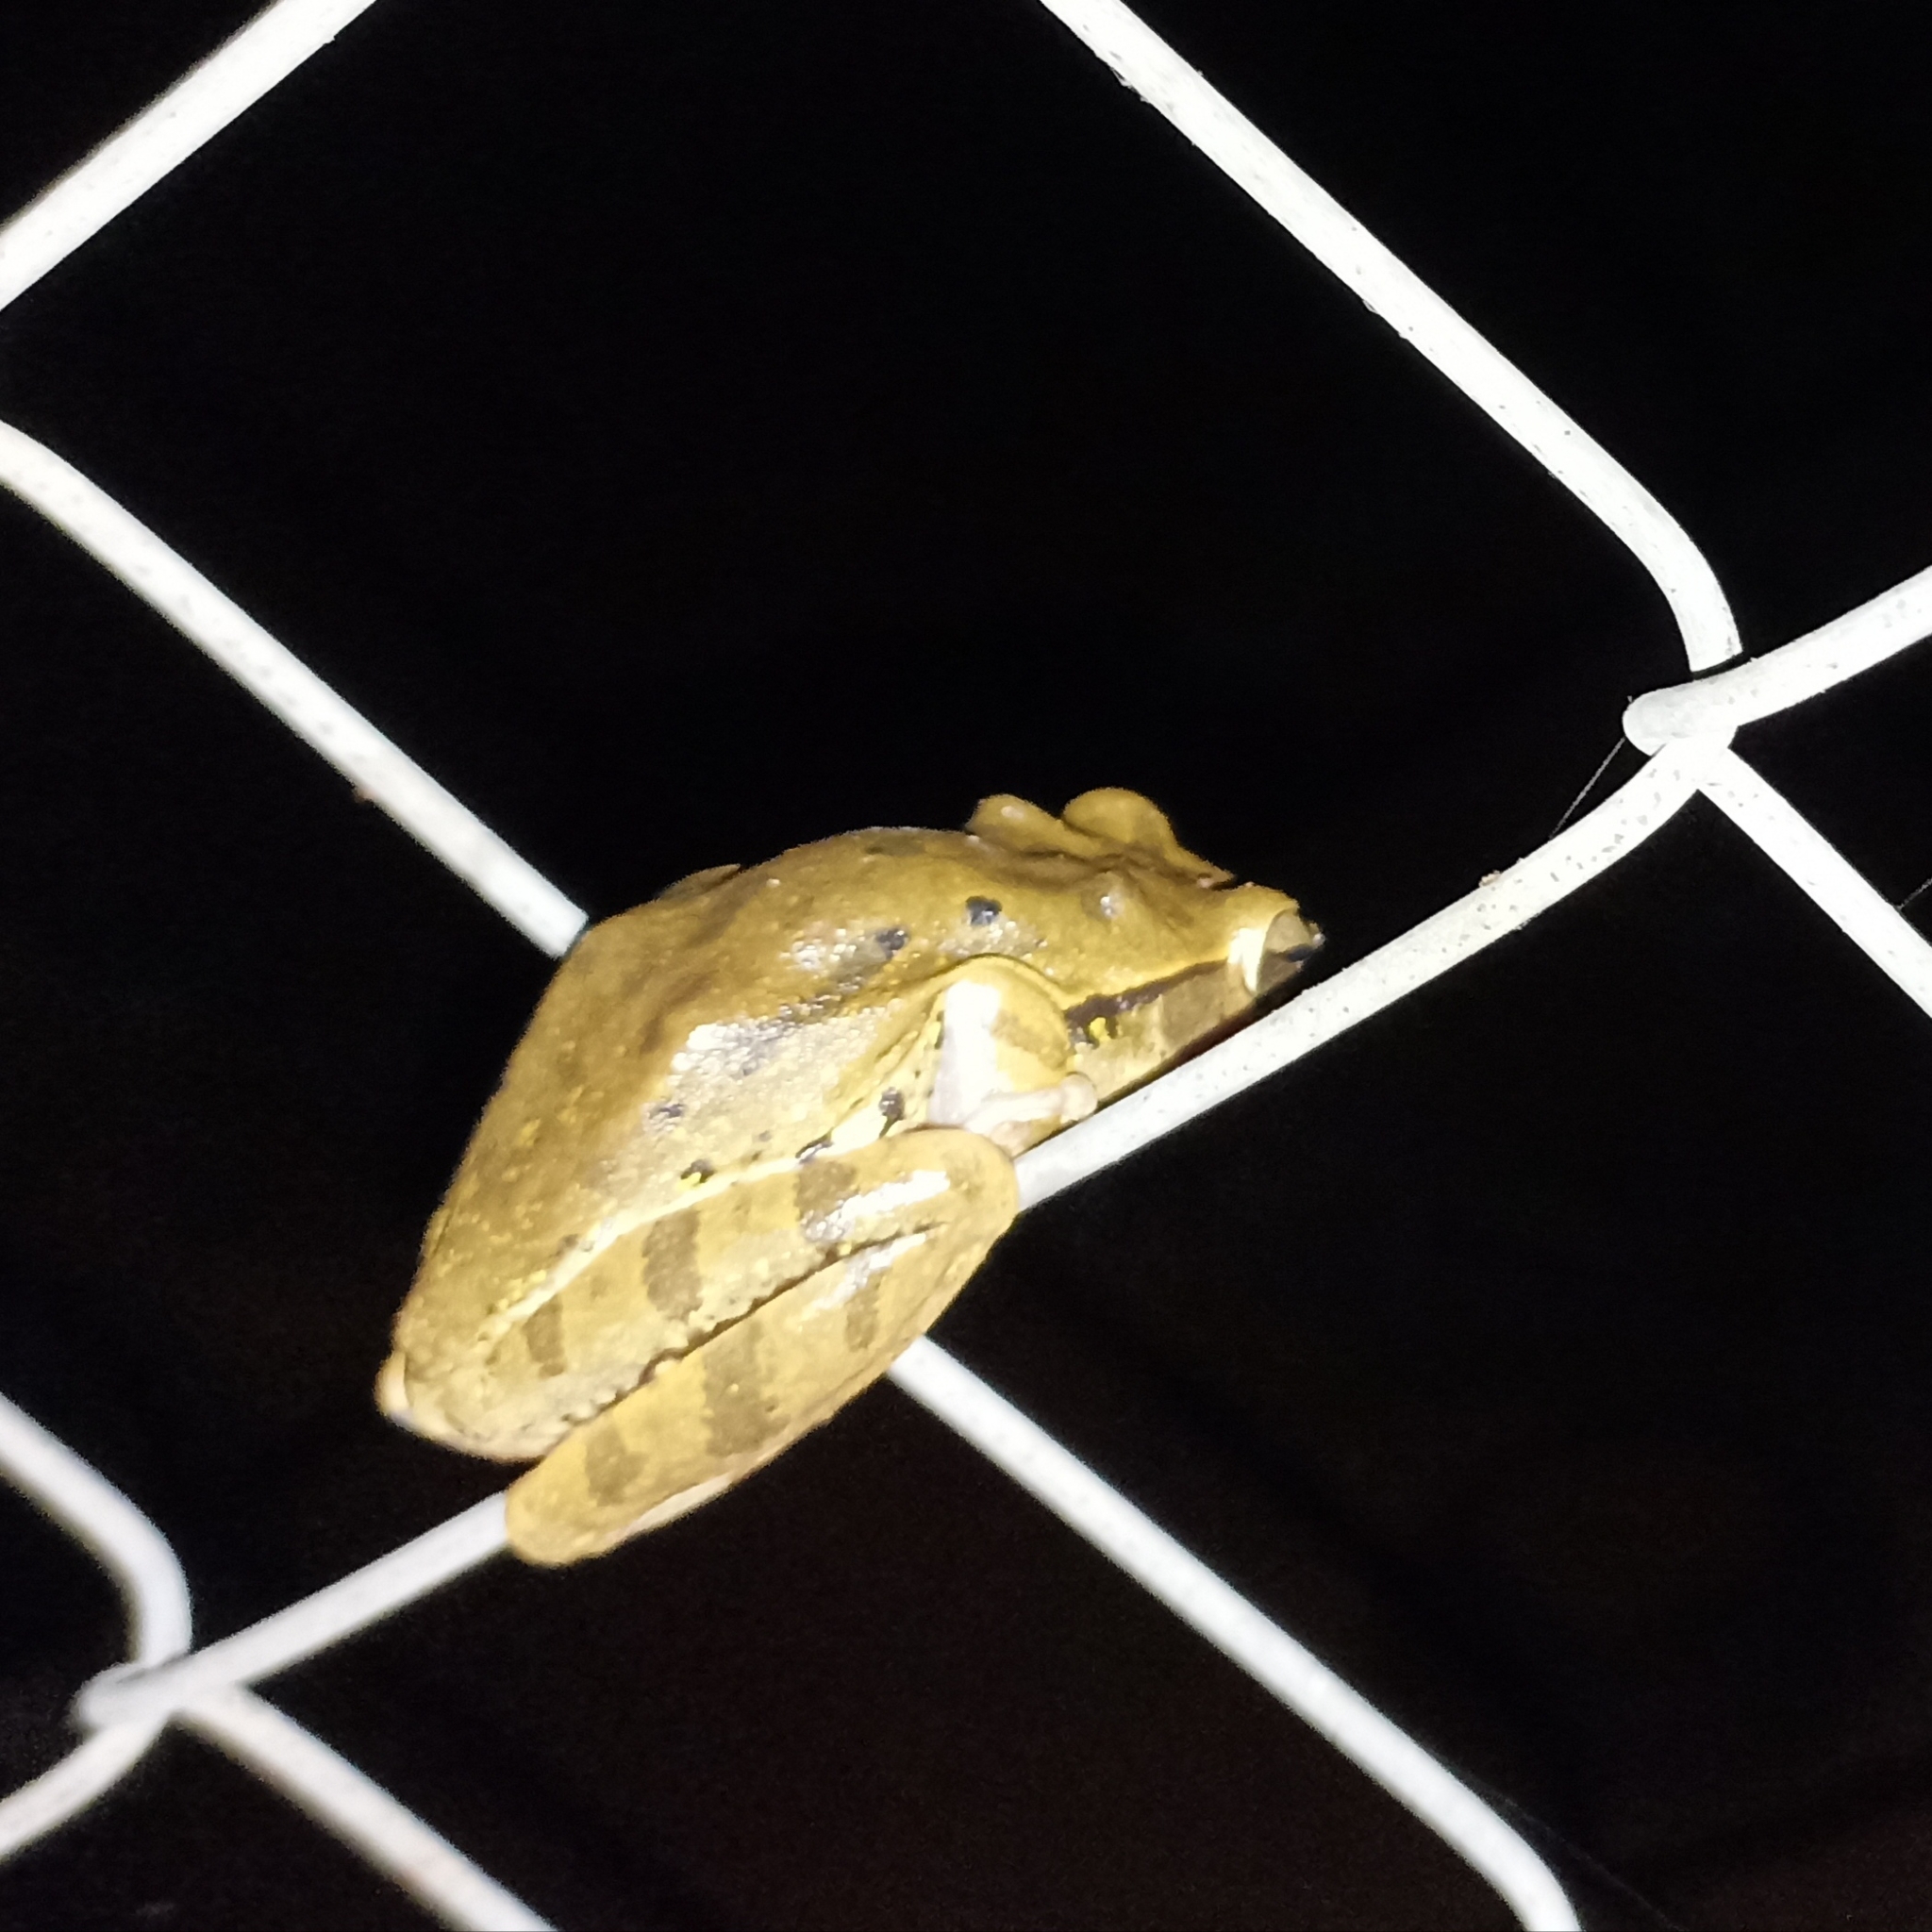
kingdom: Animalia
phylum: Chordata
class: Amphibia
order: Anura
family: Rhacophoridae
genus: Polypedates
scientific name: Polypedates maculatus
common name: Himalayan tree frog
